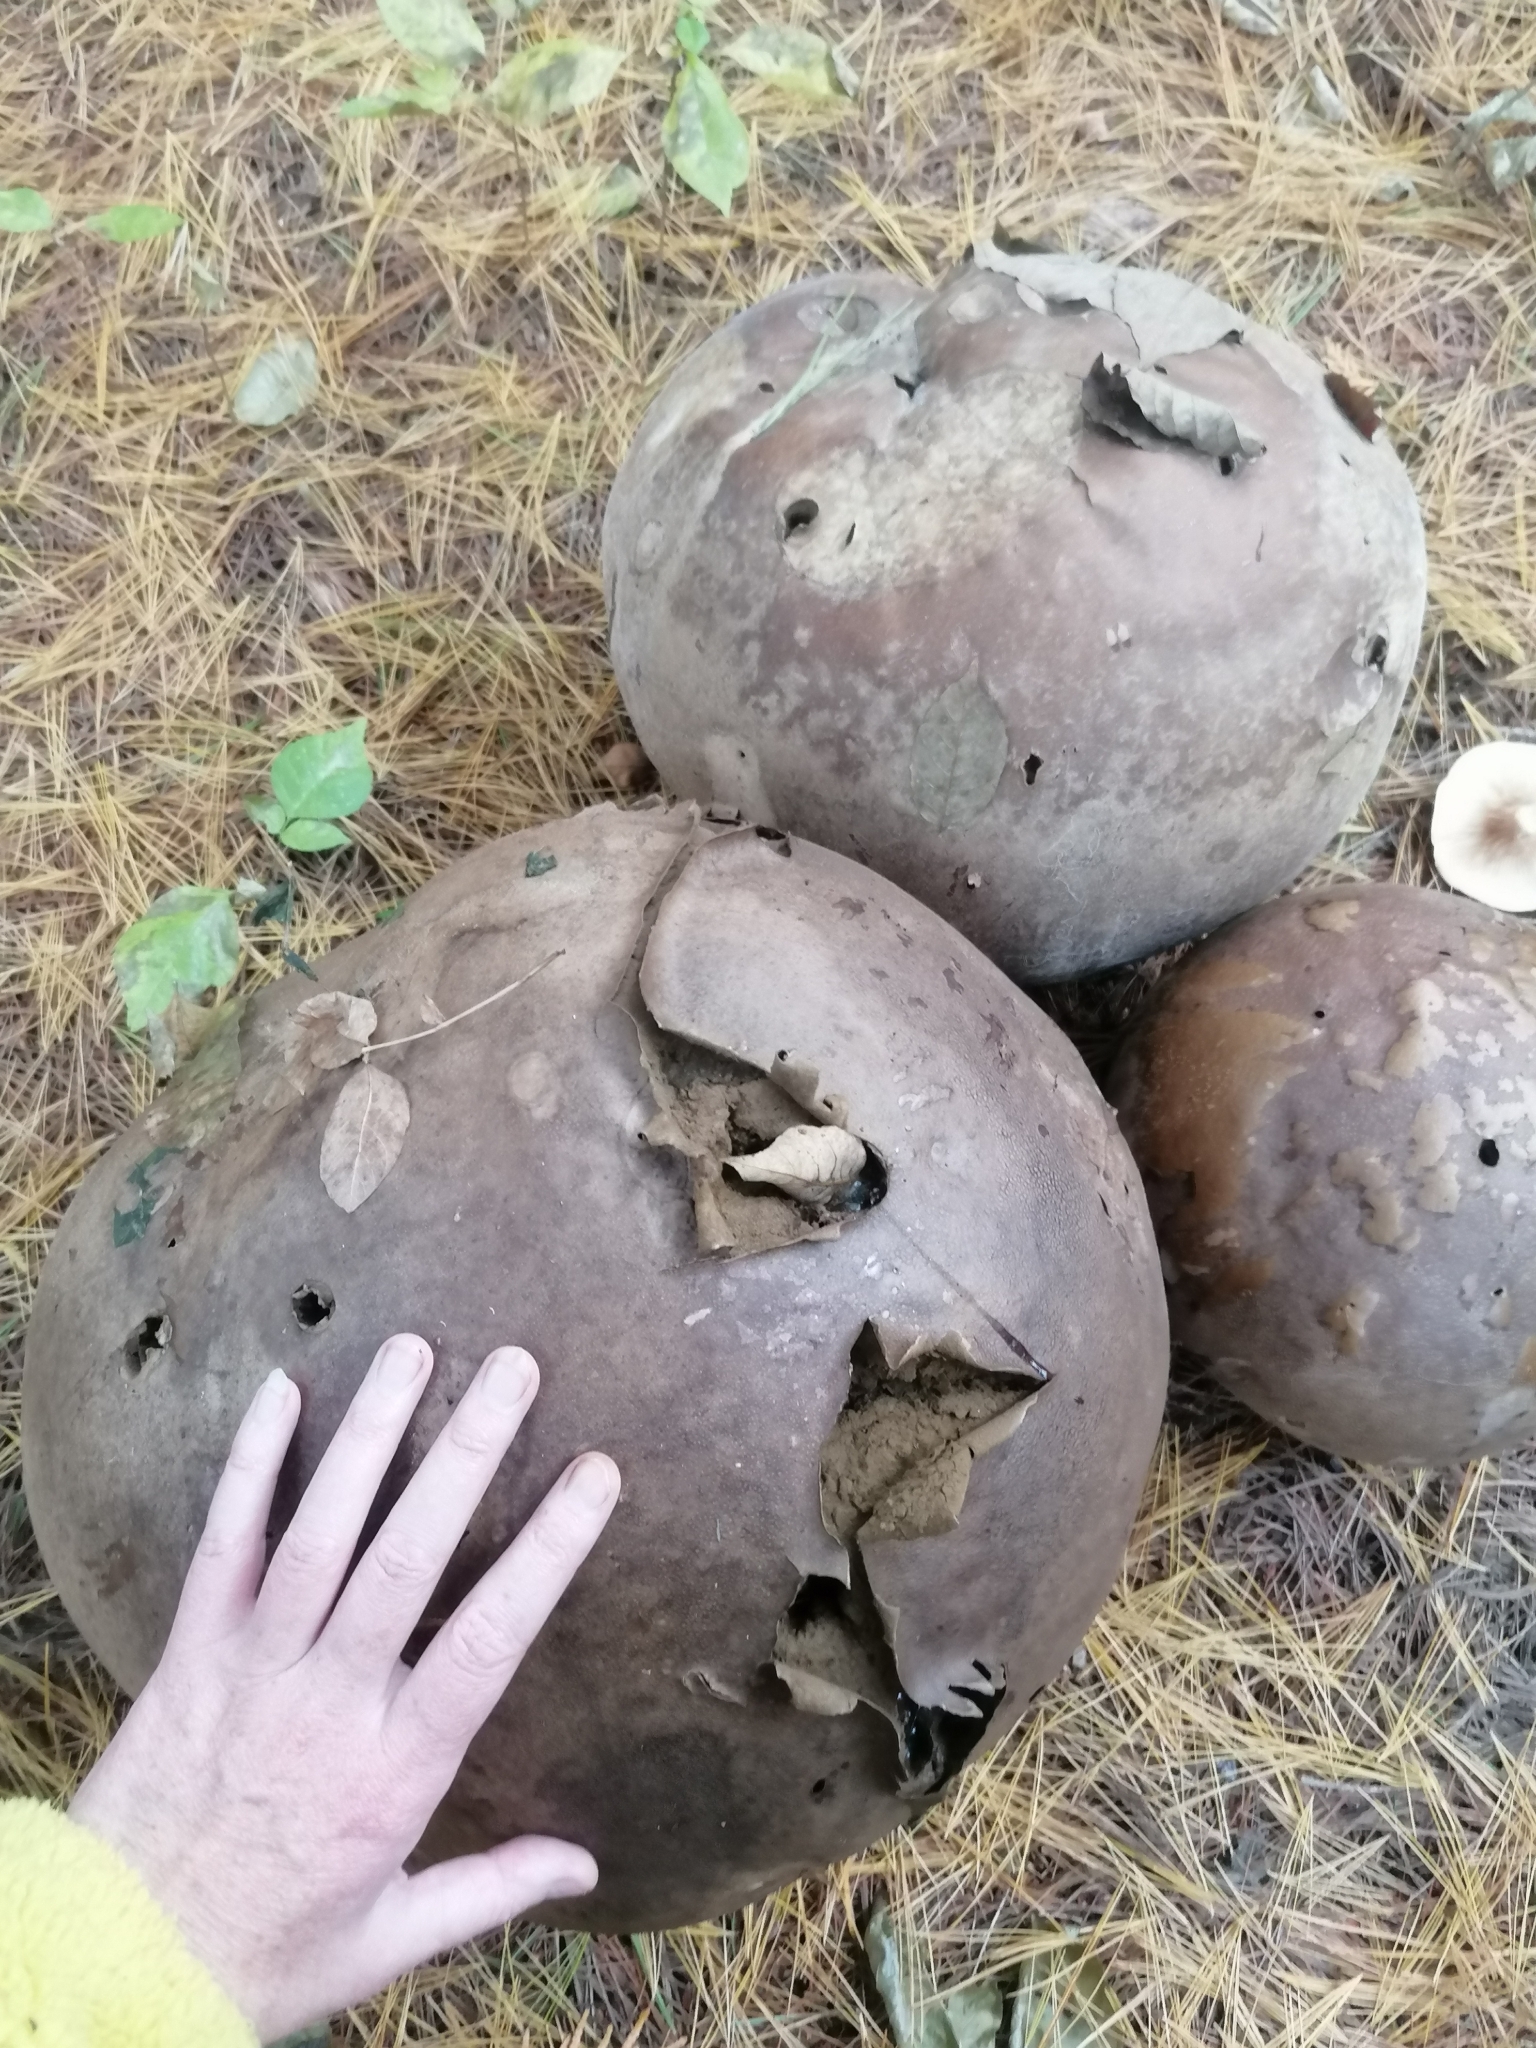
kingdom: Fungi
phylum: Basidiomycota
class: Agaricomycetes
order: Agaricales
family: Lycoperdaceae
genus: Calvatia
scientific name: Calvatia gigantea
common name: Giant puffball
